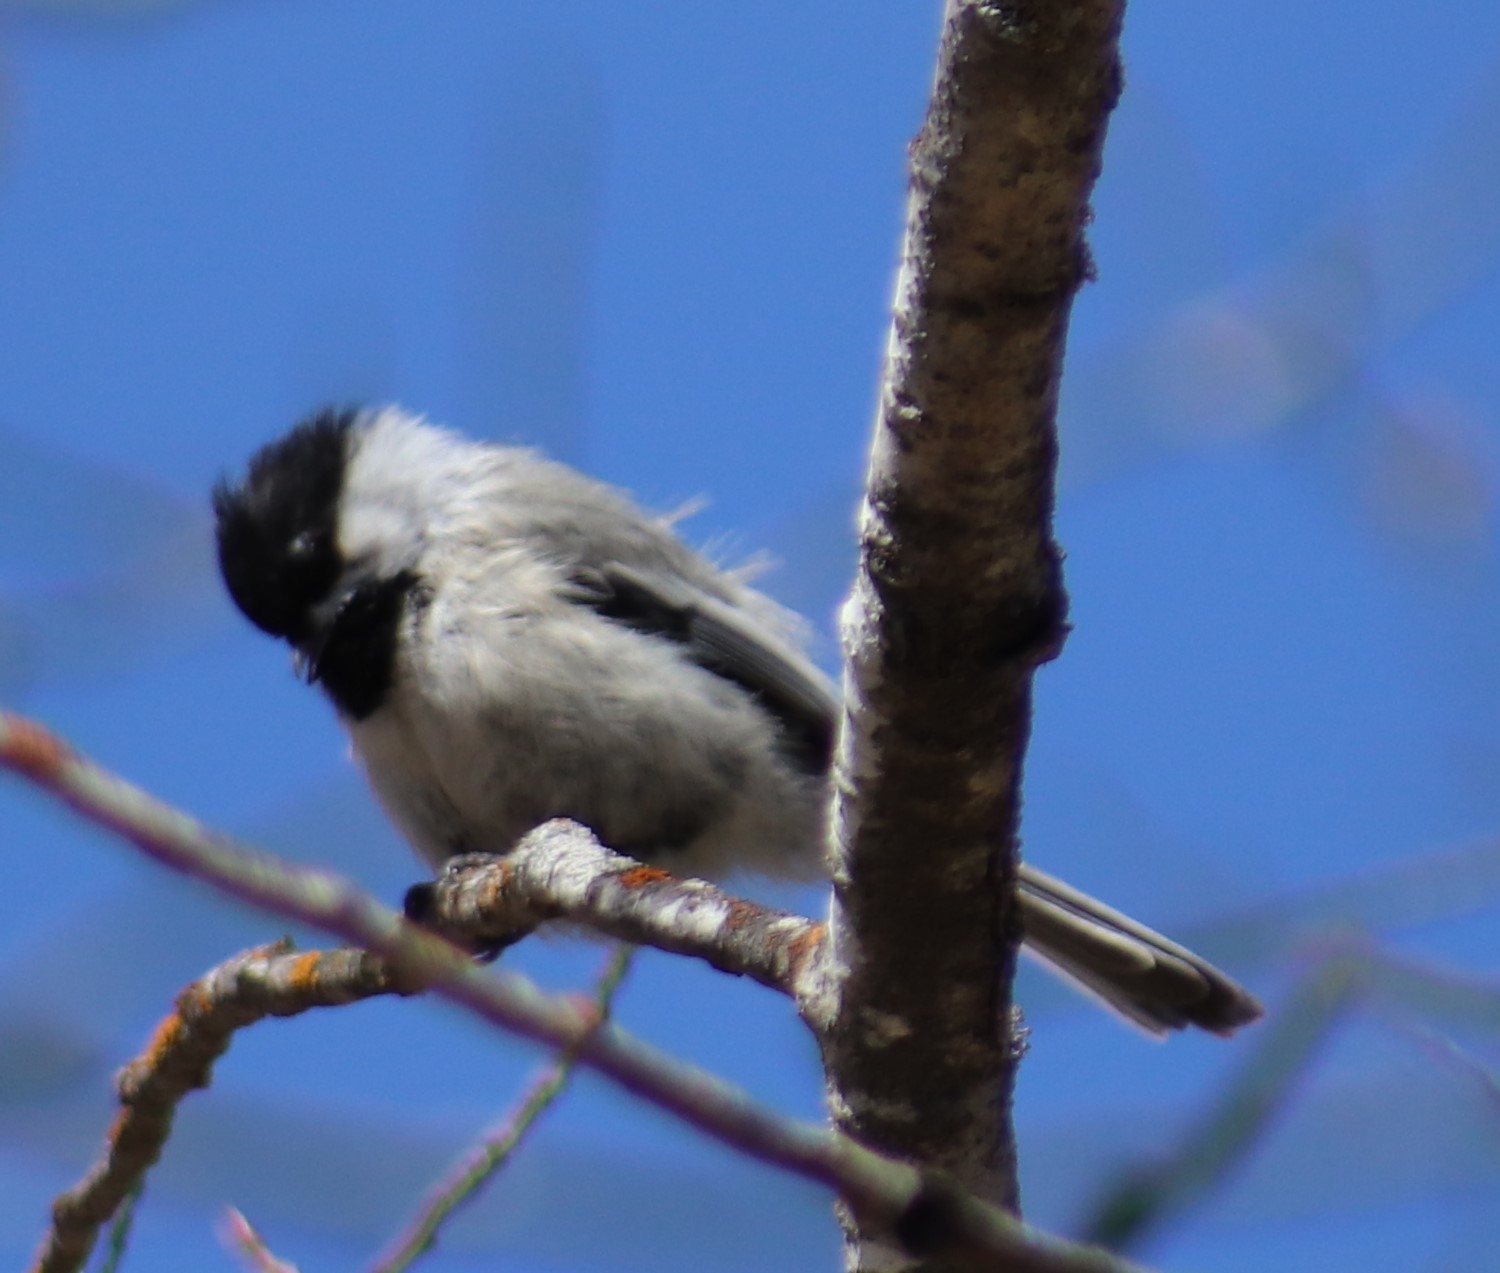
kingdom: Animalia
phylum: Chordata
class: Aves
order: Passeriformes
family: Paridae
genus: Poecile
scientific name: Poecile atricapillus
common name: Black-capped chickadee
